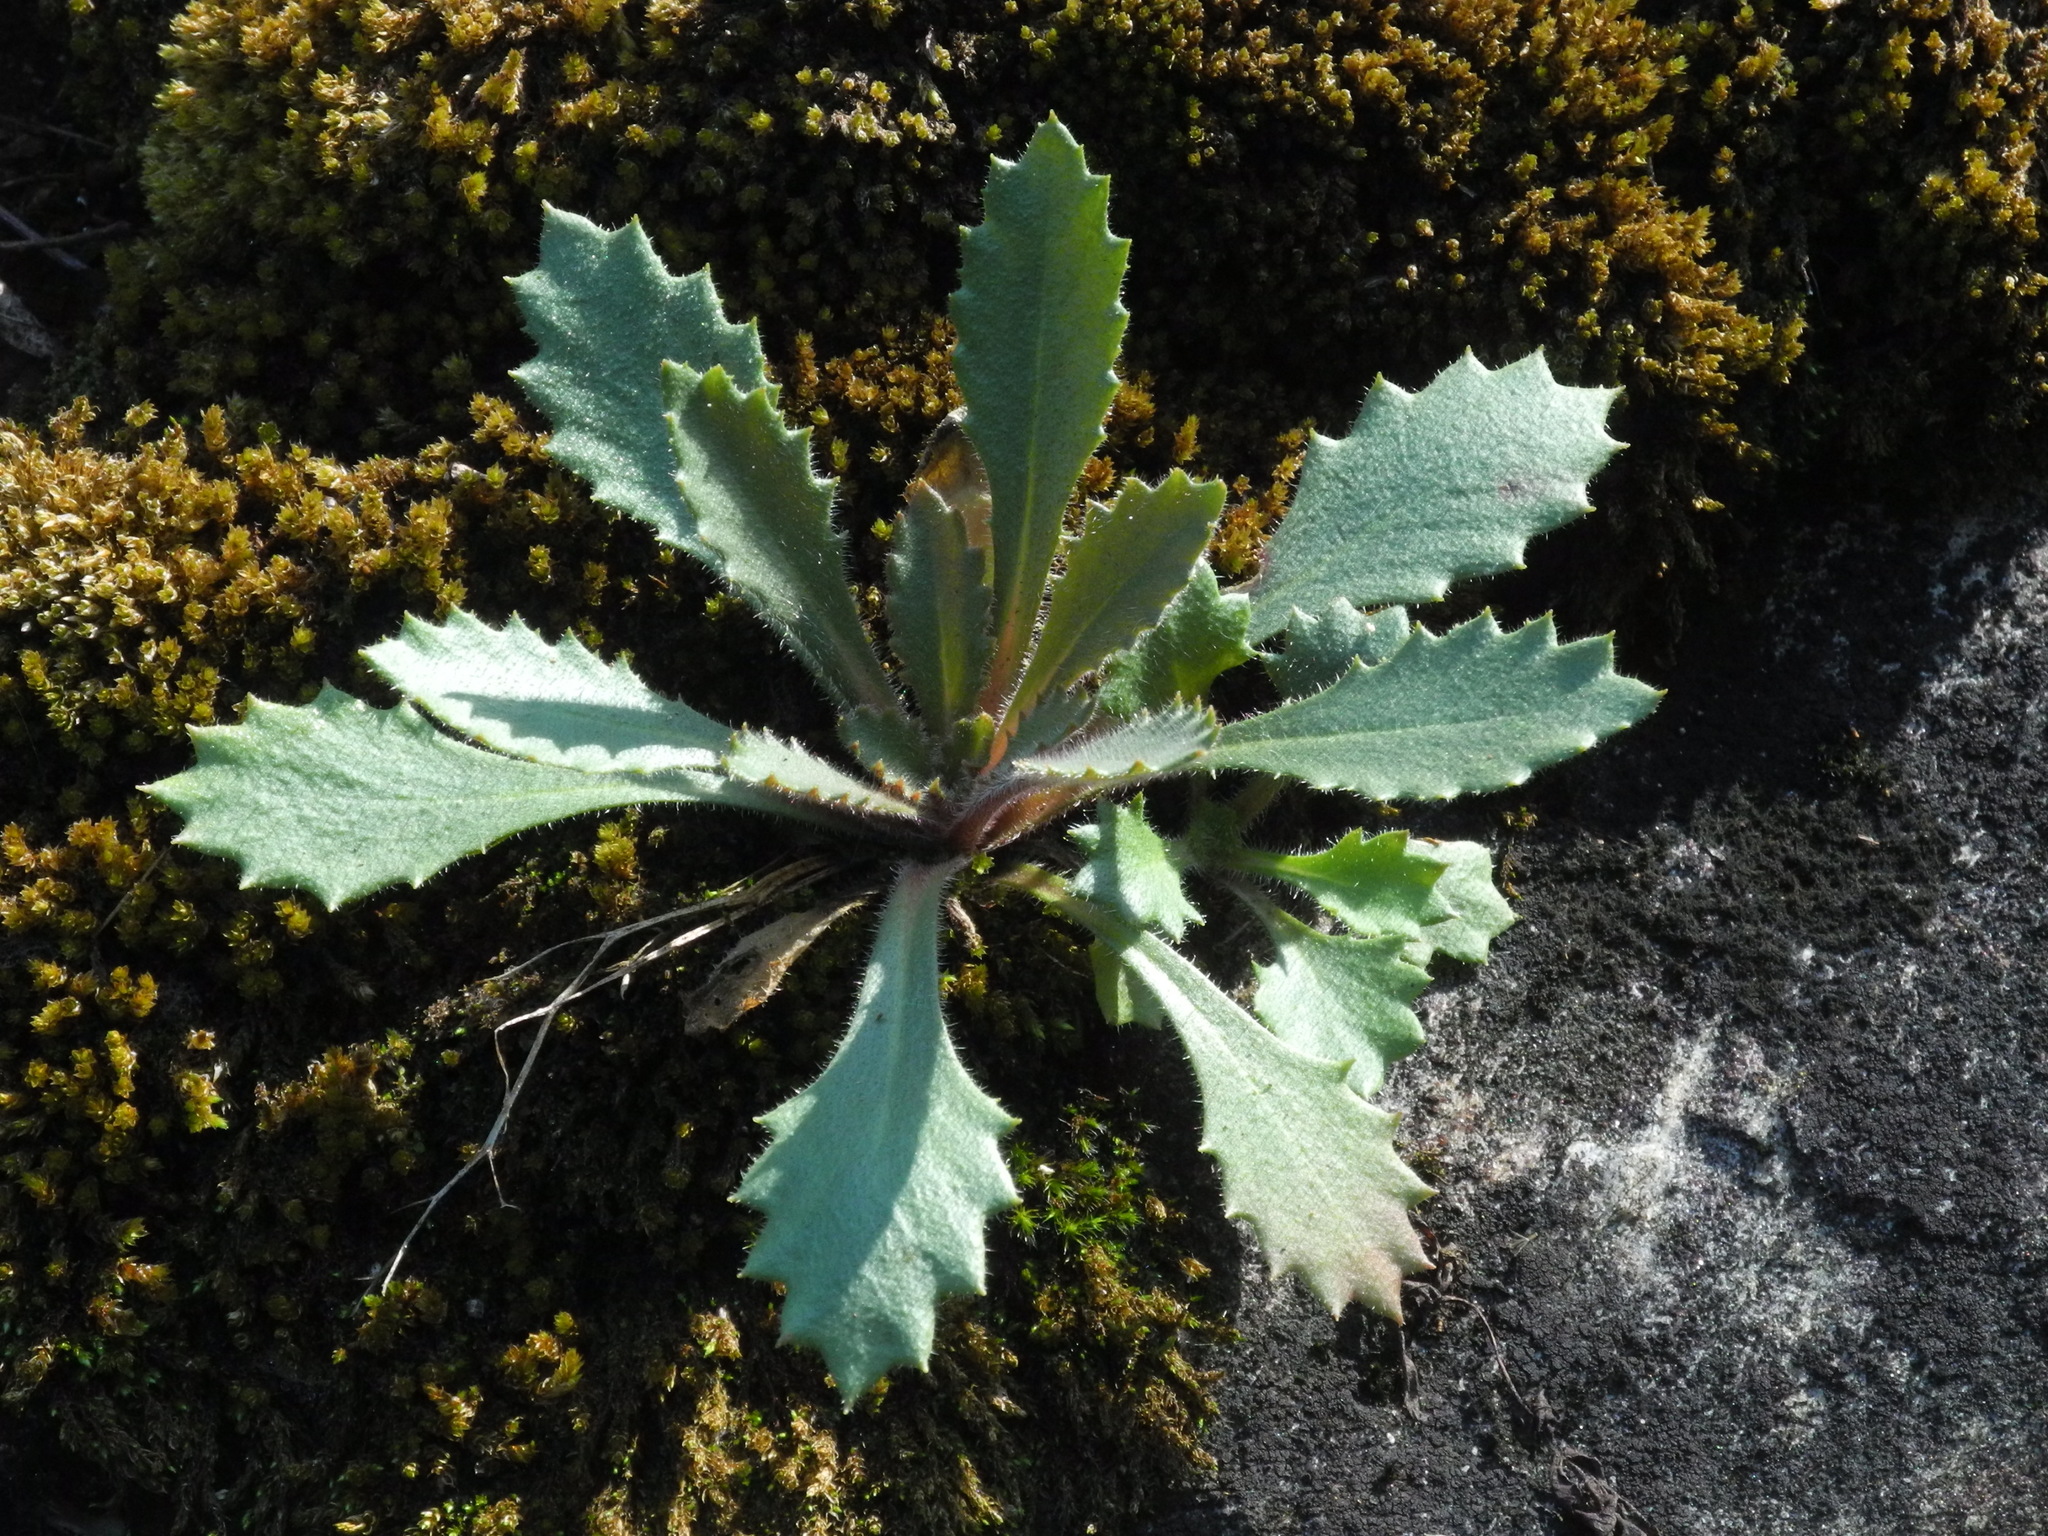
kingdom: Plantae
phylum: Tracheophyta
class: Magnoliopsida
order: Saxifragales
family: Saxifragaceae
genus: Micranthes
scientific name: Micranthes petiolaris
